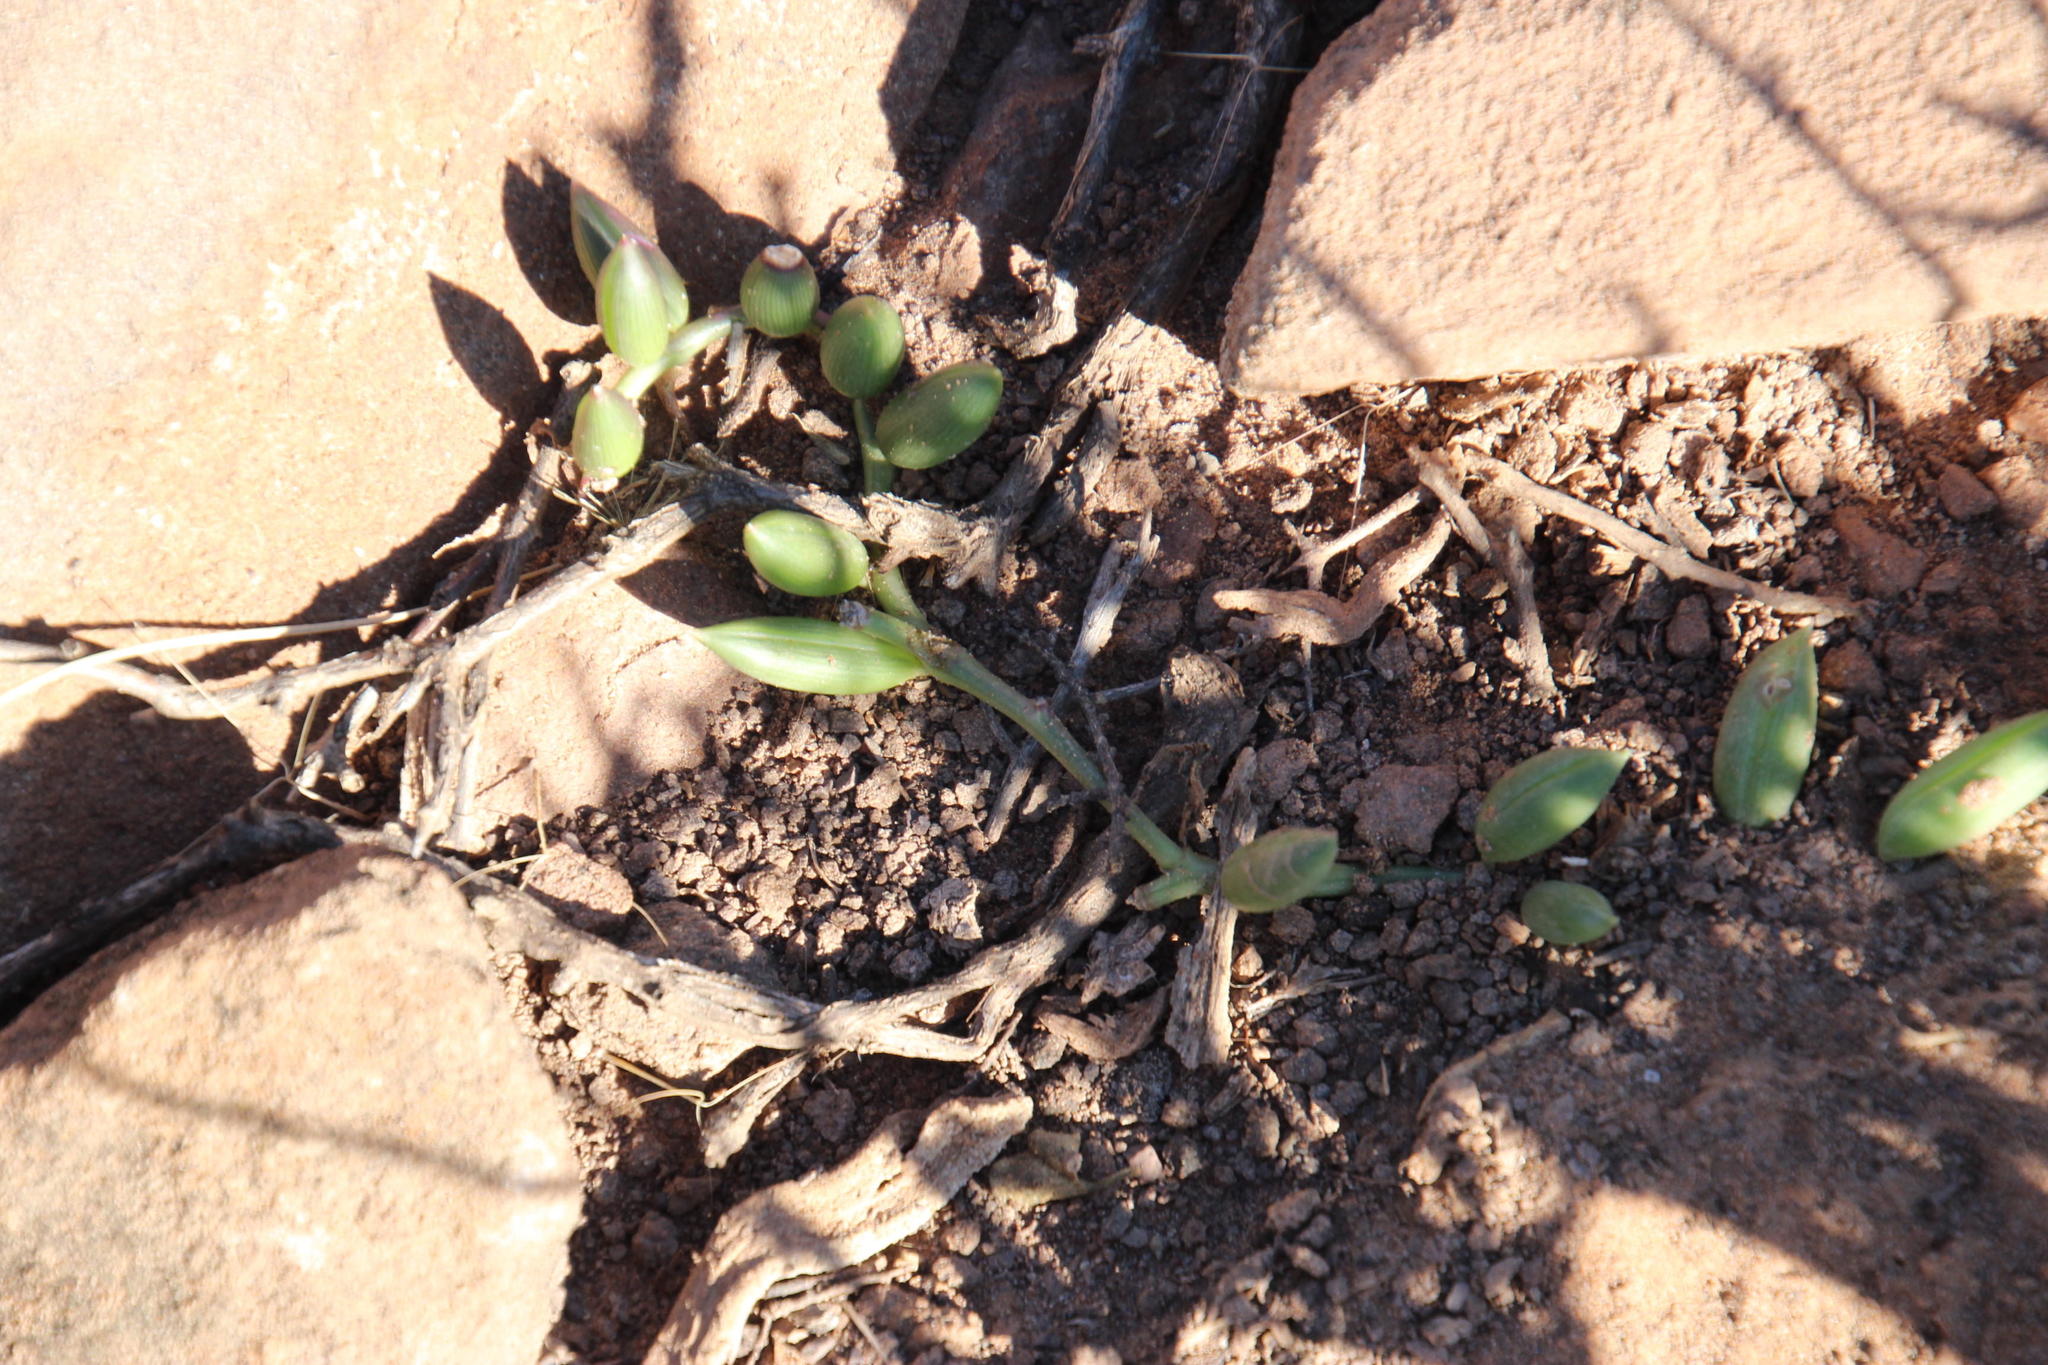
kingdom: Plantae
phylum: Tracheophyta
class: Magnoliopsida
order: Asterales
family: Asteraceae
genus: Curio
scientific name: Curio radicans
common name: Creeping-berry
